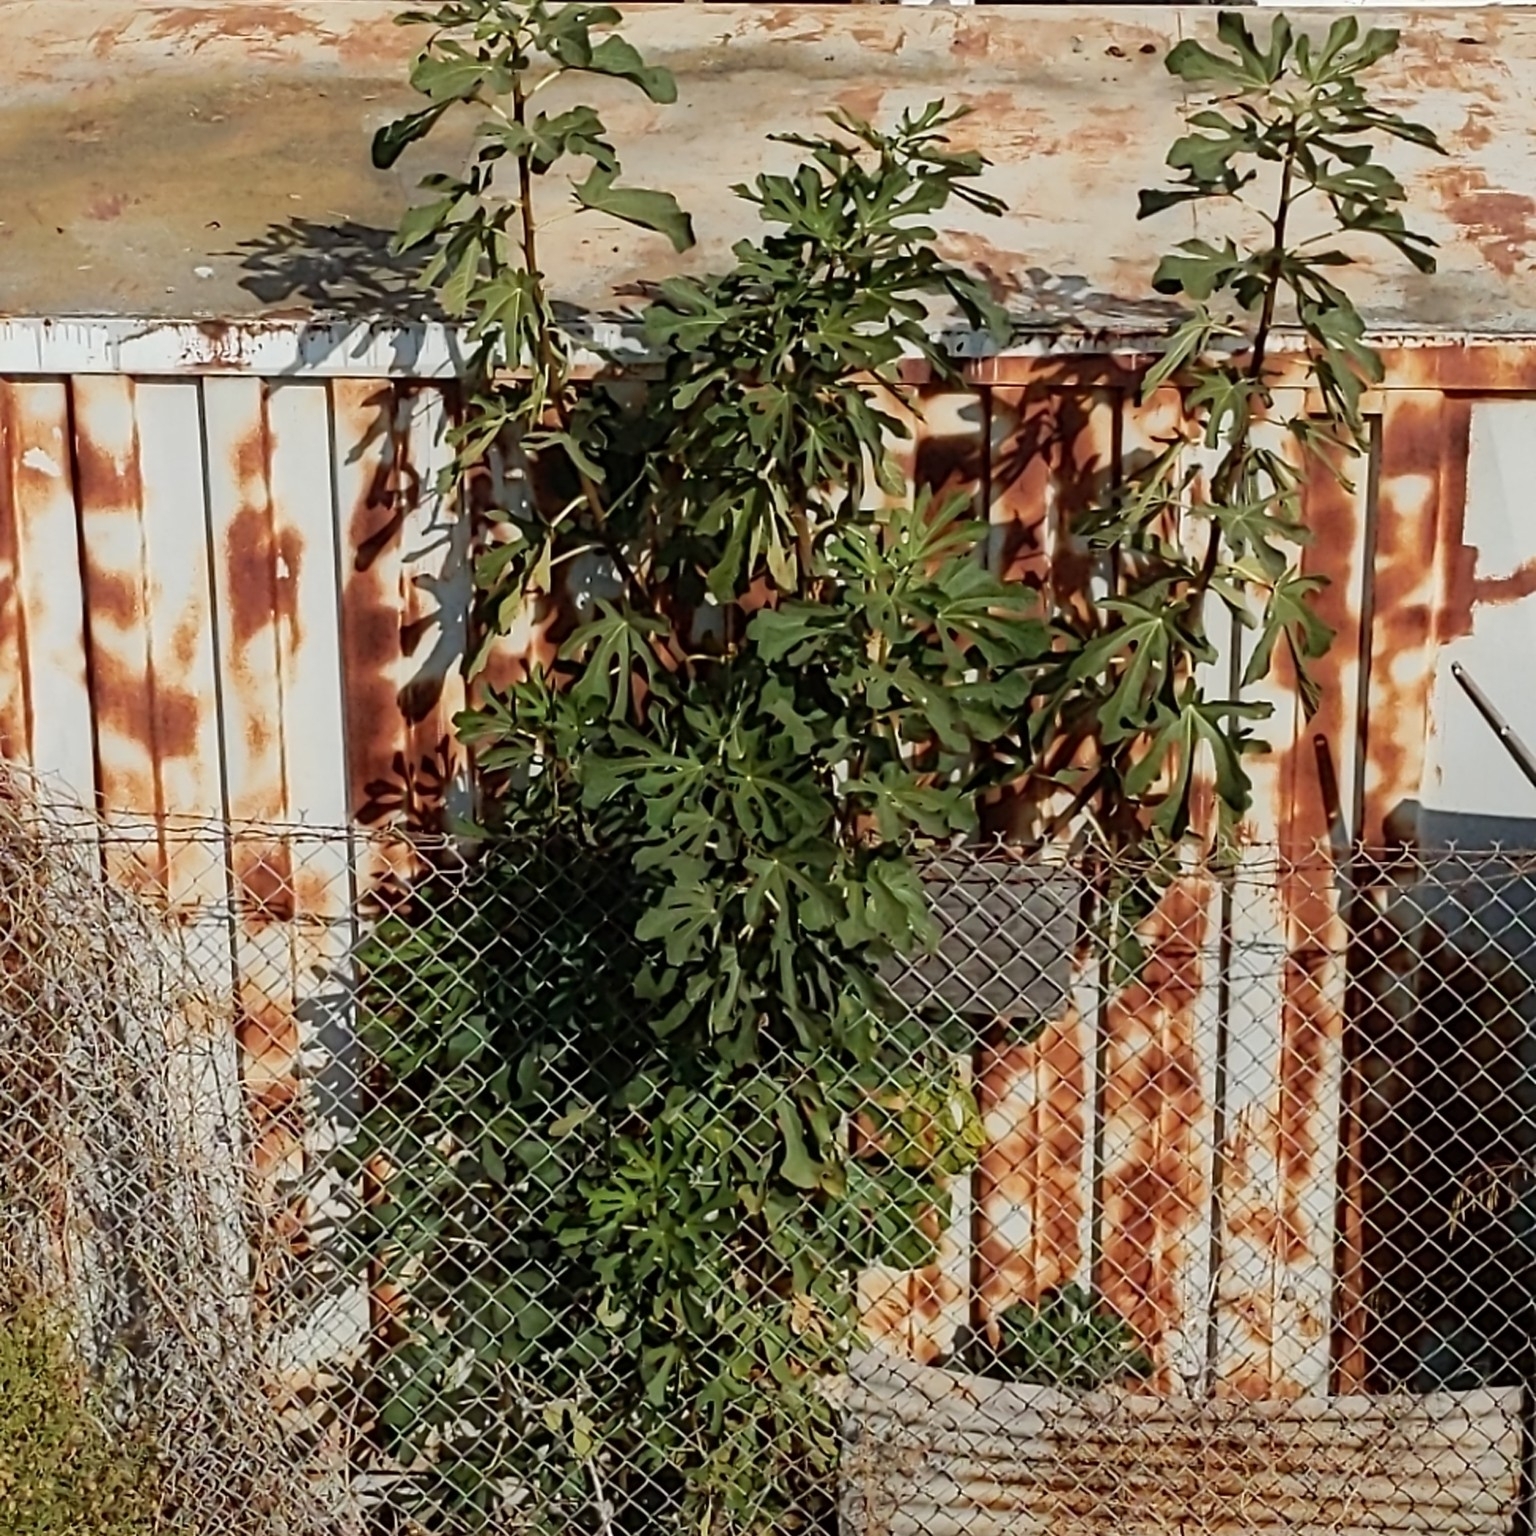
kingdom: Plantae
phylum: Tracheophyta
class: Magnoliopsida
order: Rosales
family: Moraceae
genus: Ficus
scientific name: Ficus carica
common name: Fig
